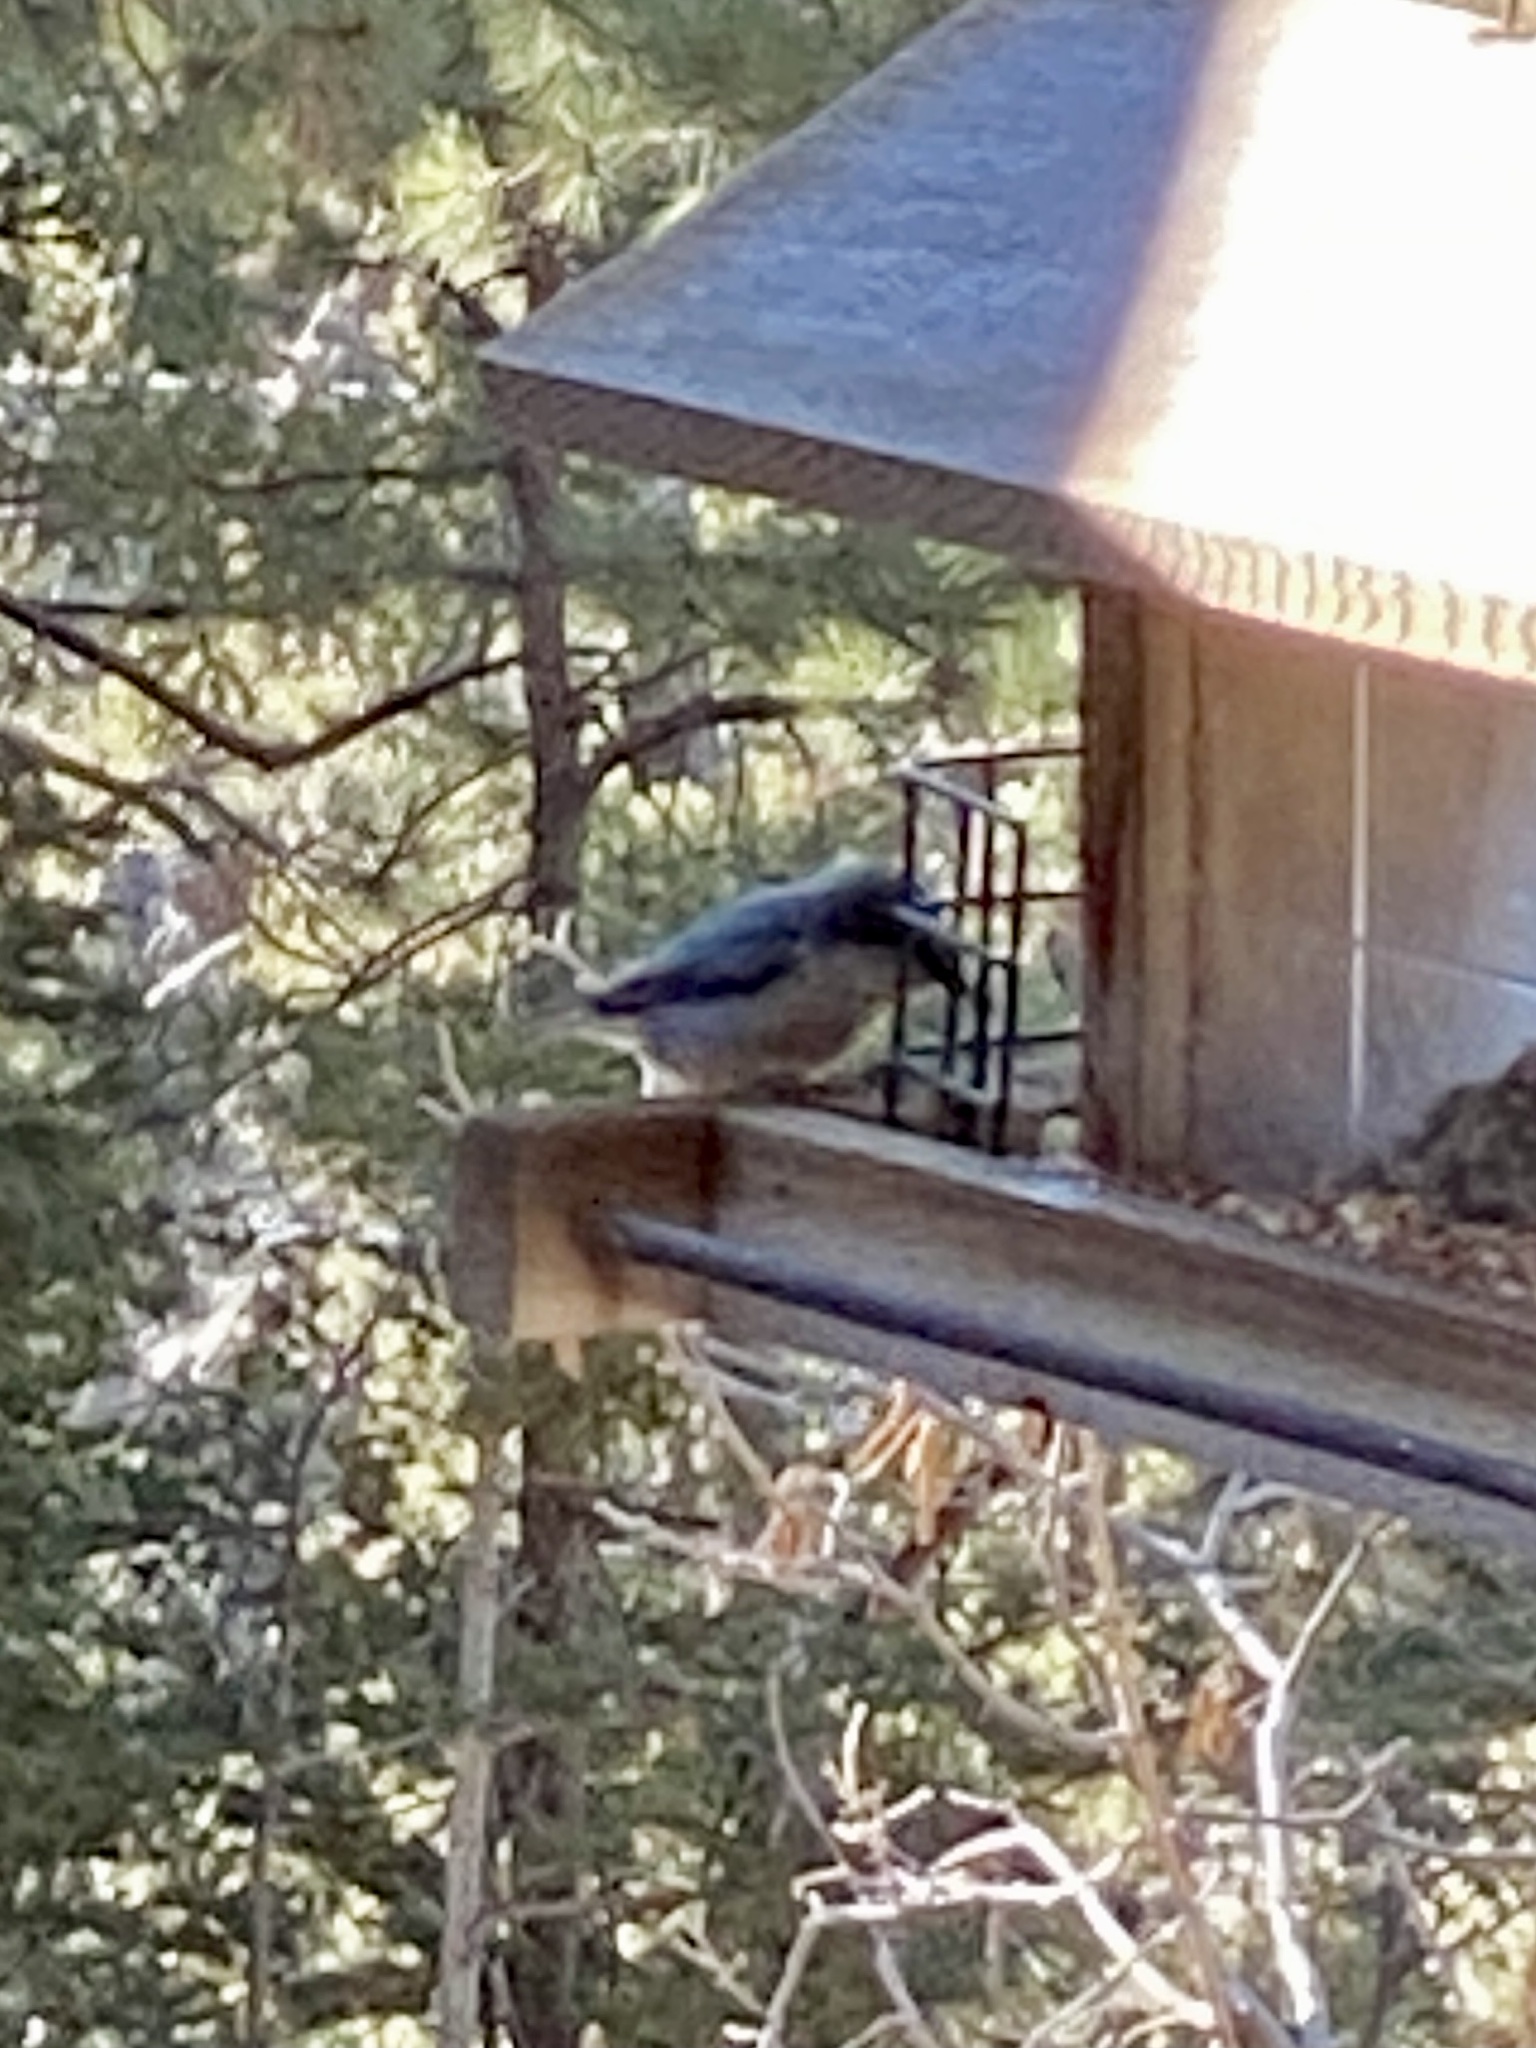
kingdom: Animalia
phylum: Chordata
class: Aves
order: Passeriformes
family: Sittidae
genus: Sitta
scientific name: Sitta pygmaea
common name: Pygmy nuthatch
